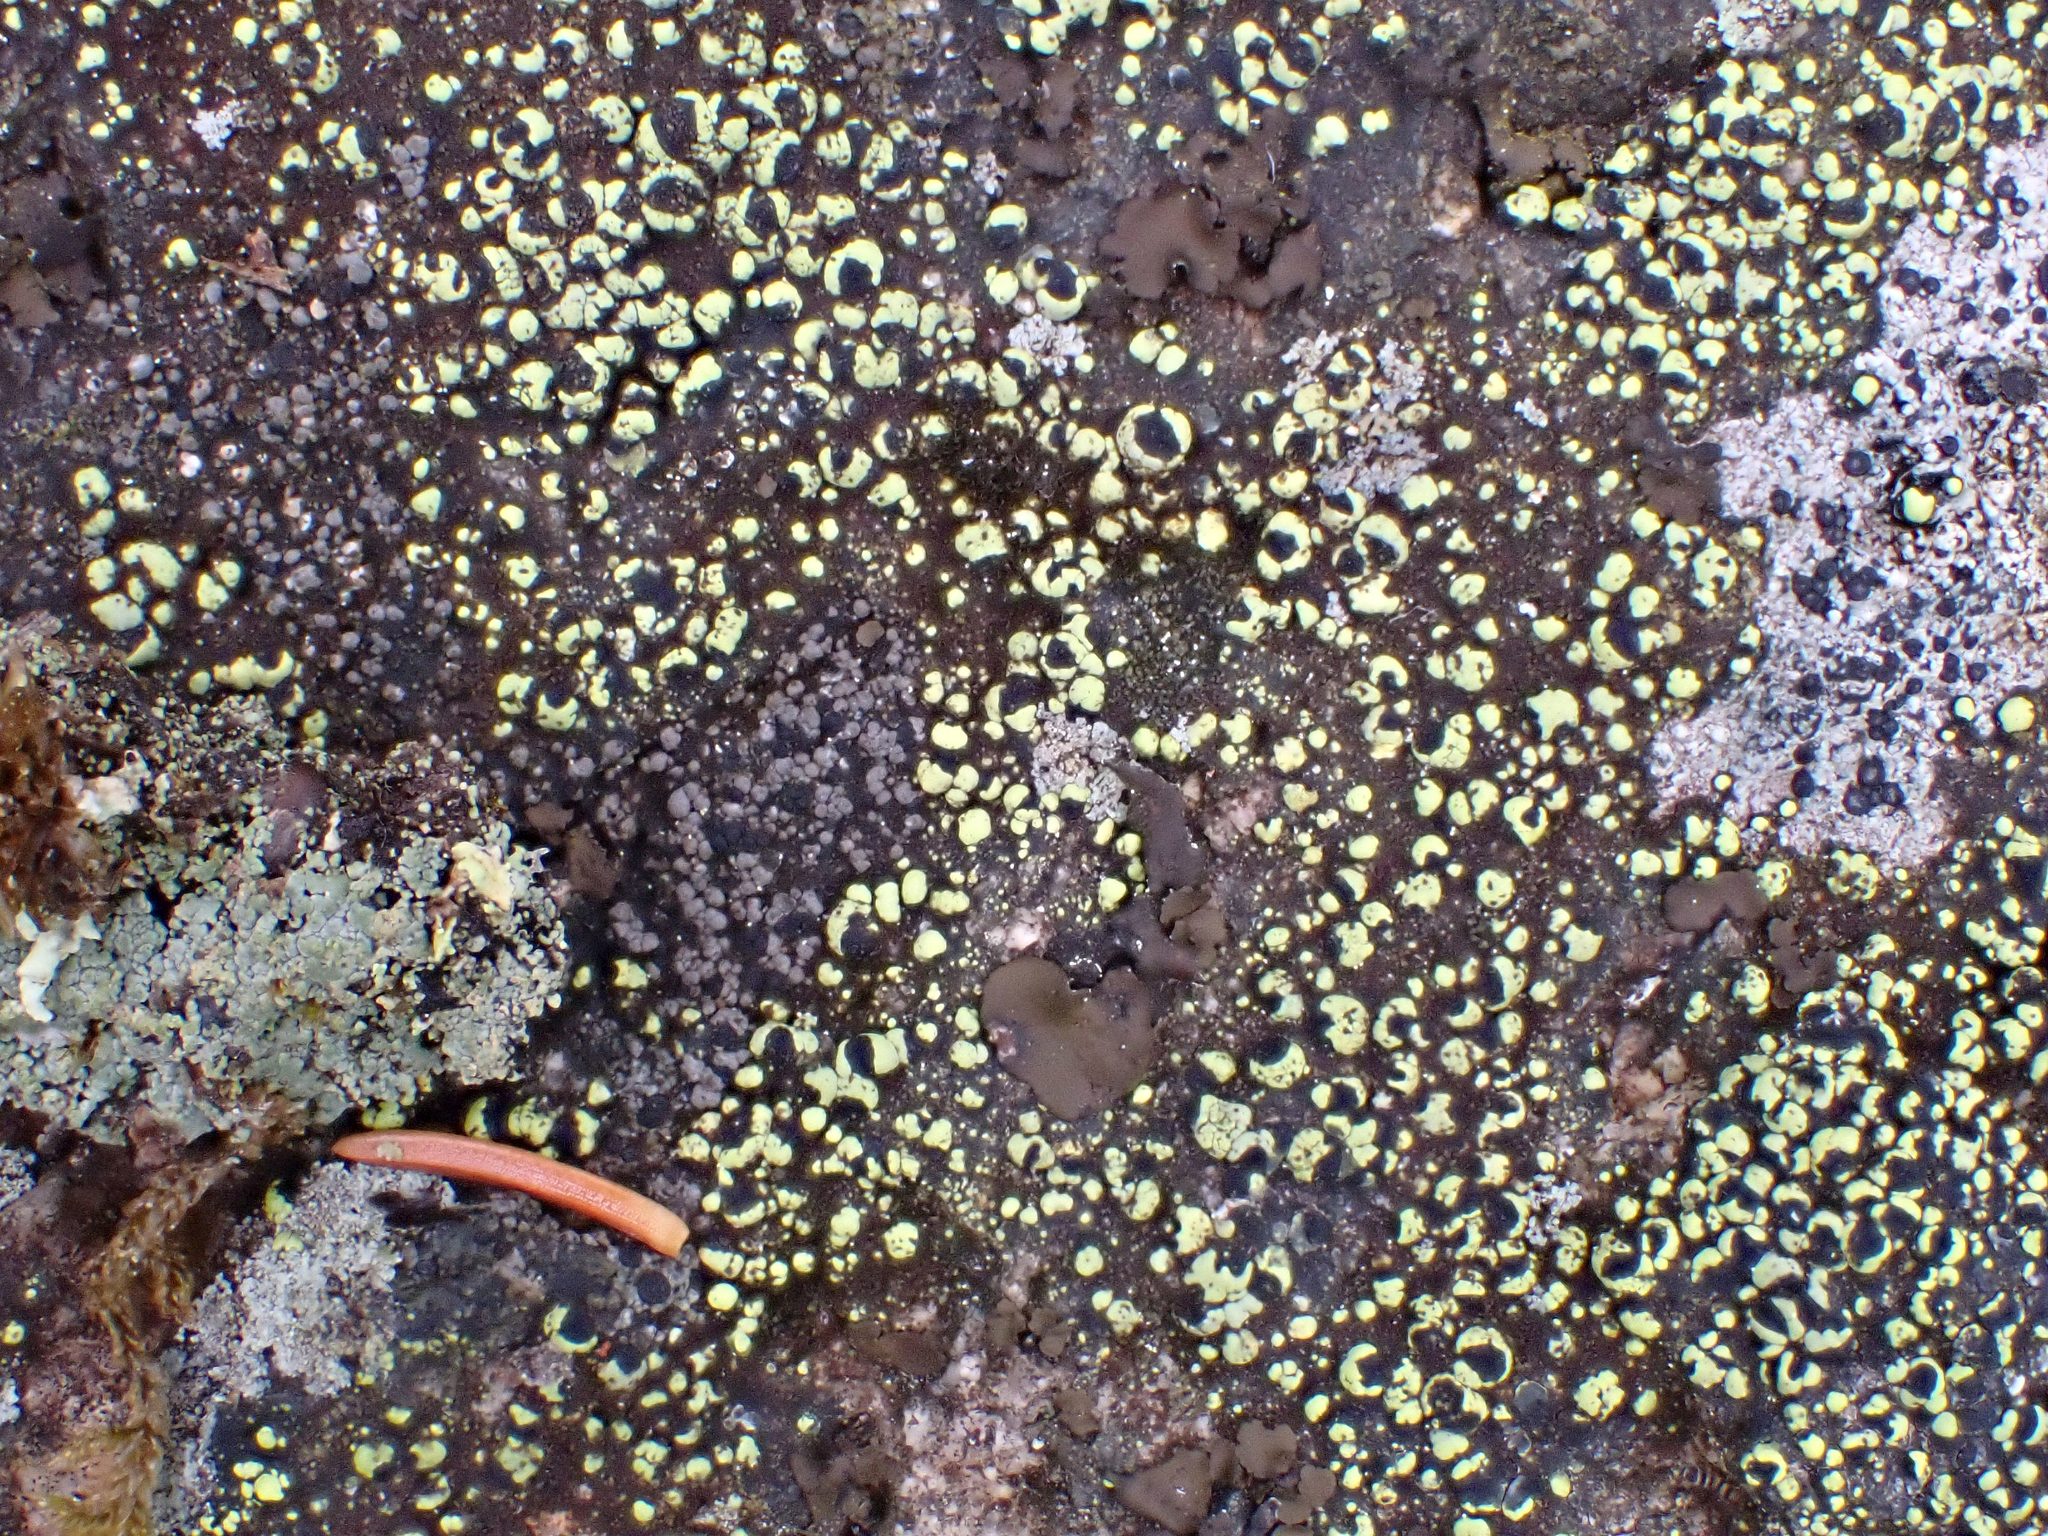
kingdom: Fungi
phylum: Ascomycota
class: Lecanoromycetes
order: Rhizocarpales
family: Rhizocarpaceae
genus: Rhizocarpon
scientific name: Rhizocarpon lecanorinum
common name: Crescent map lichen
